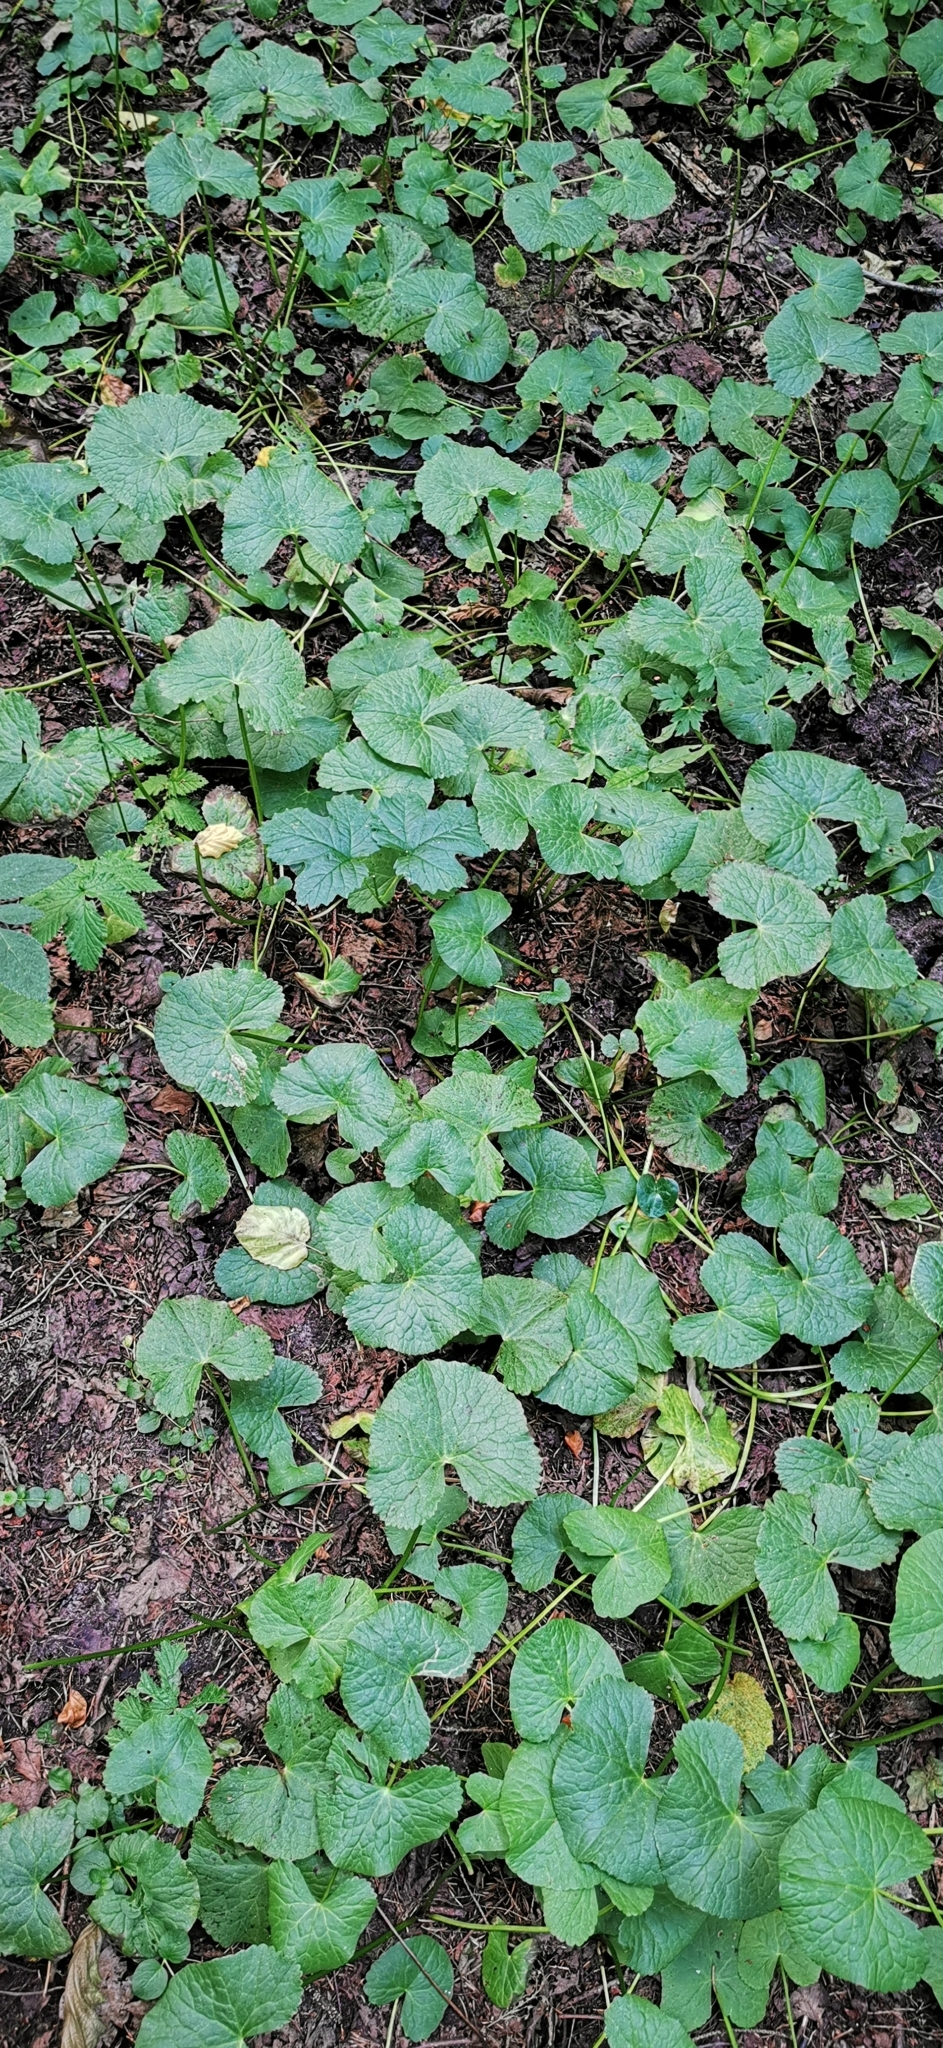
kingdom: Plantae
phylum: Tracheophyta
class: Magnoliopsida
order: Ranunculales
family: Ranunculaceae
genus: Caltha
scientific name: Caltha palustris
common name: Marsh marigold
